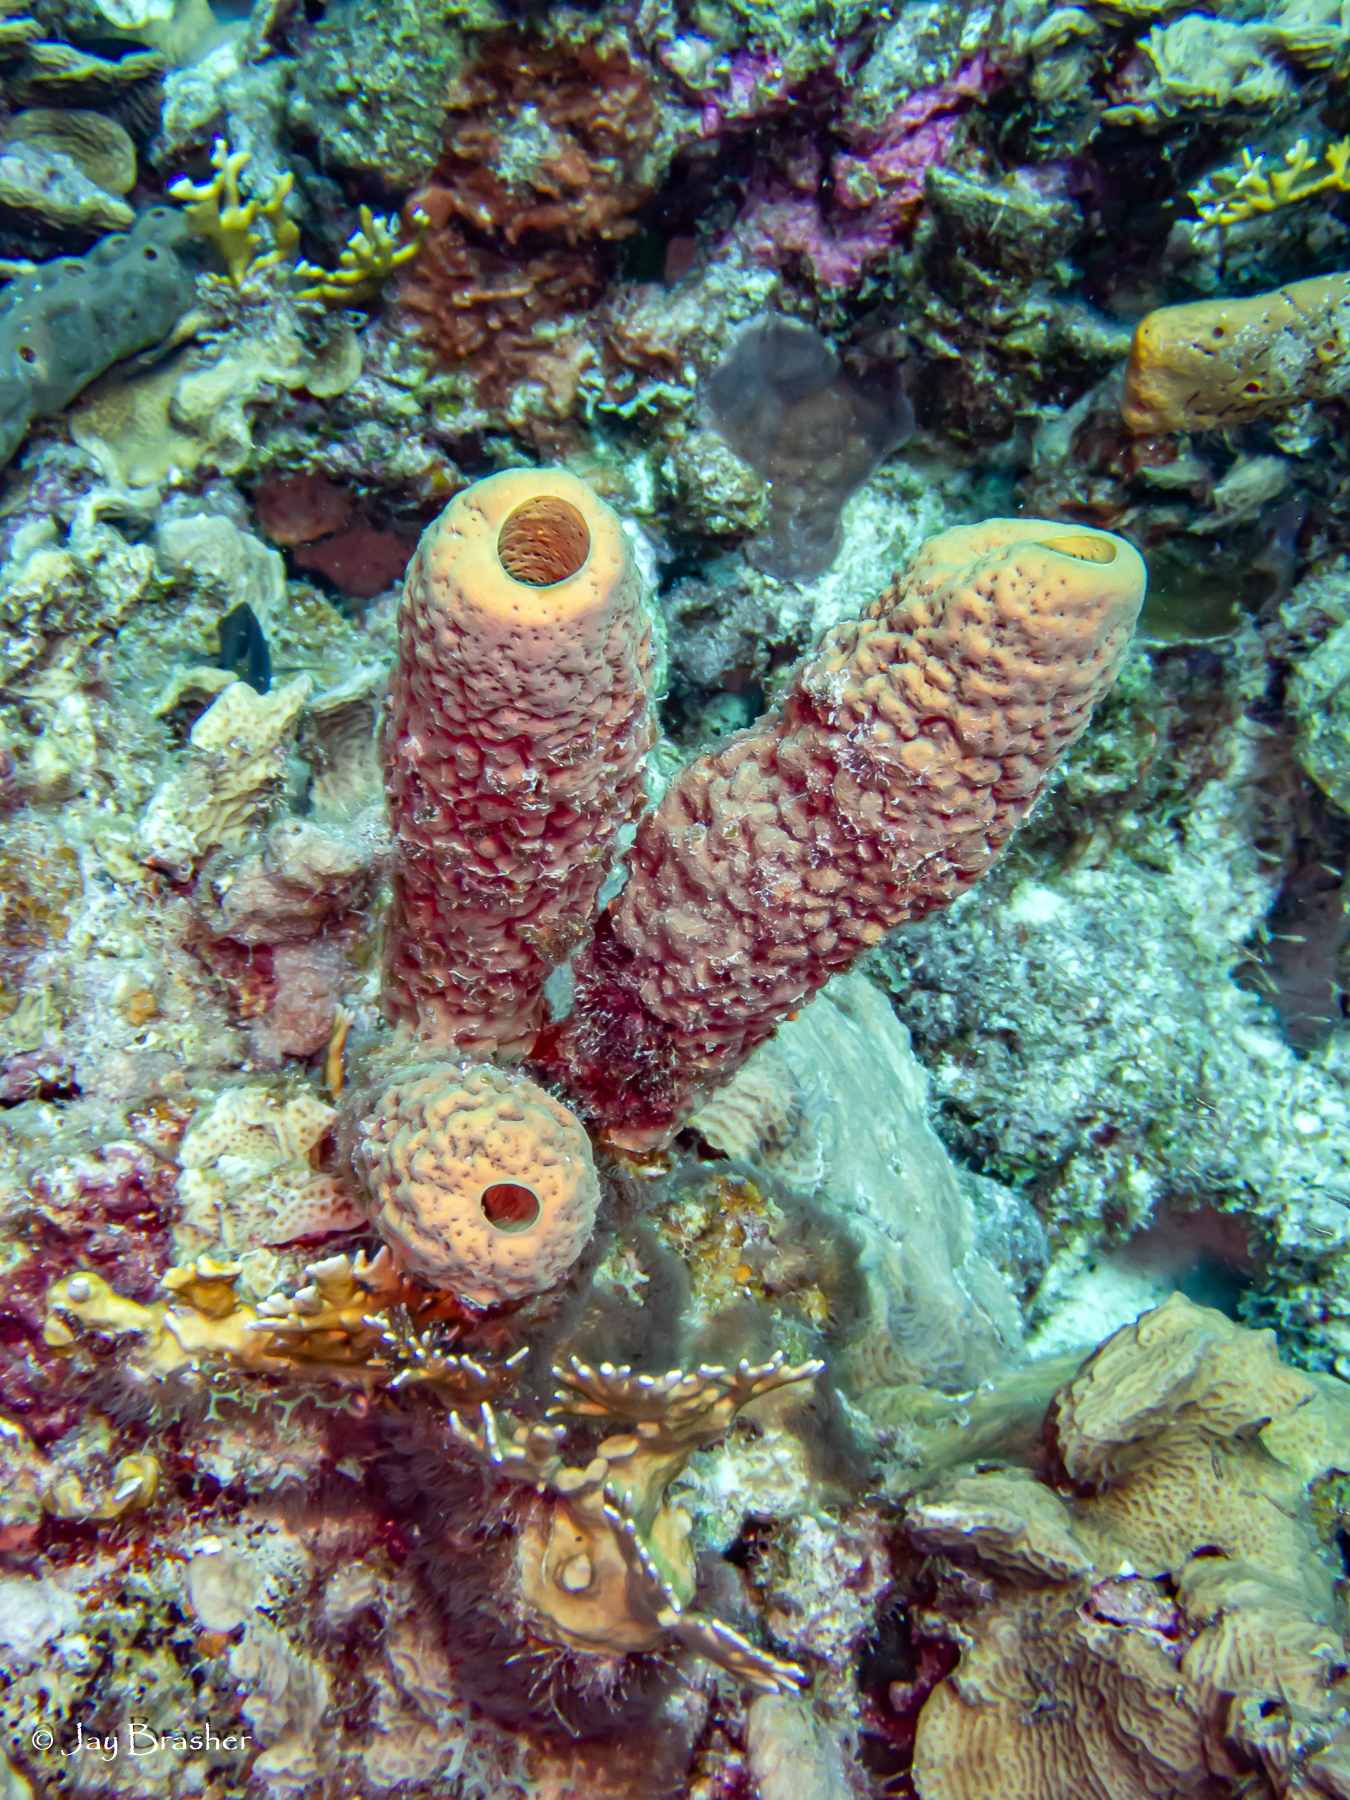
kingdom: Animalia
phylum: Porifera
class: Demospongiae
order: Verongiida
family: Aplysinidae
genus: Aplysina
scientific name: Aplysina archeri
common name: Stove-pipe sponge
